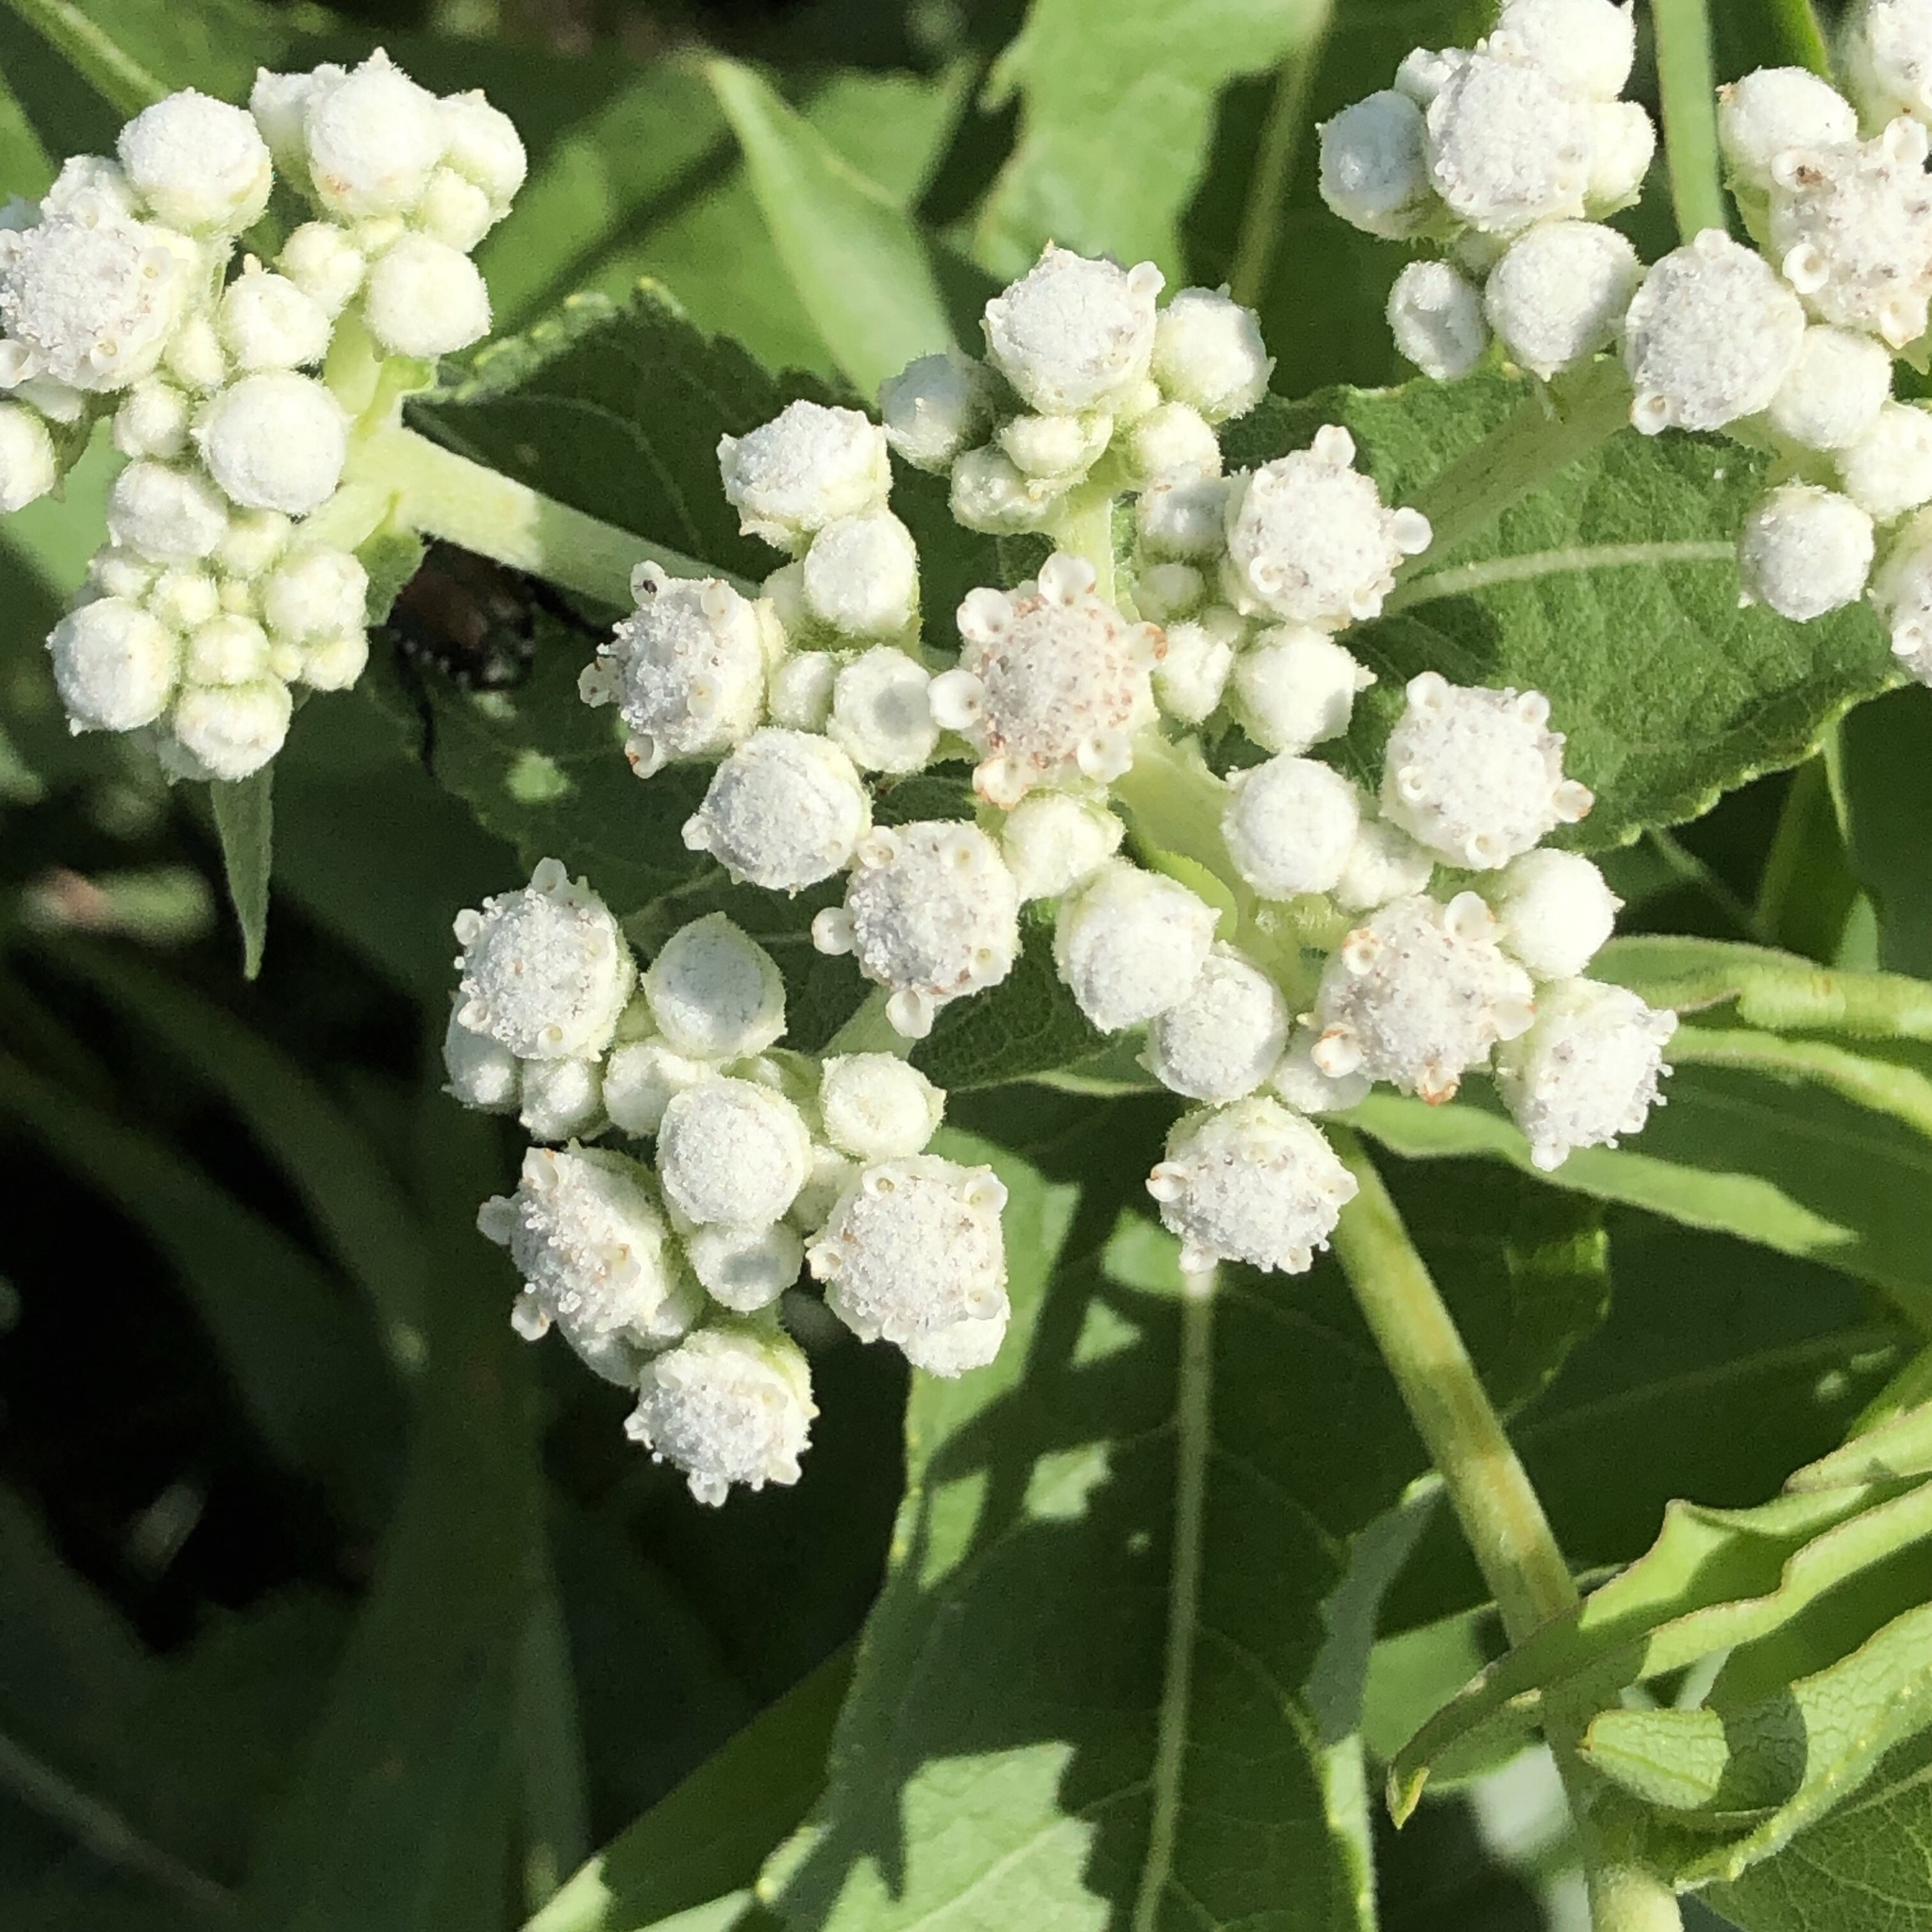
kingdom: Plantae
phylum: Tracheophyta
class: Magnoliopsida
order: Asterales
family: Asteraceae
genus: Parthenium
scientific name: Parthenium integrifolium
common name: American feverfew
